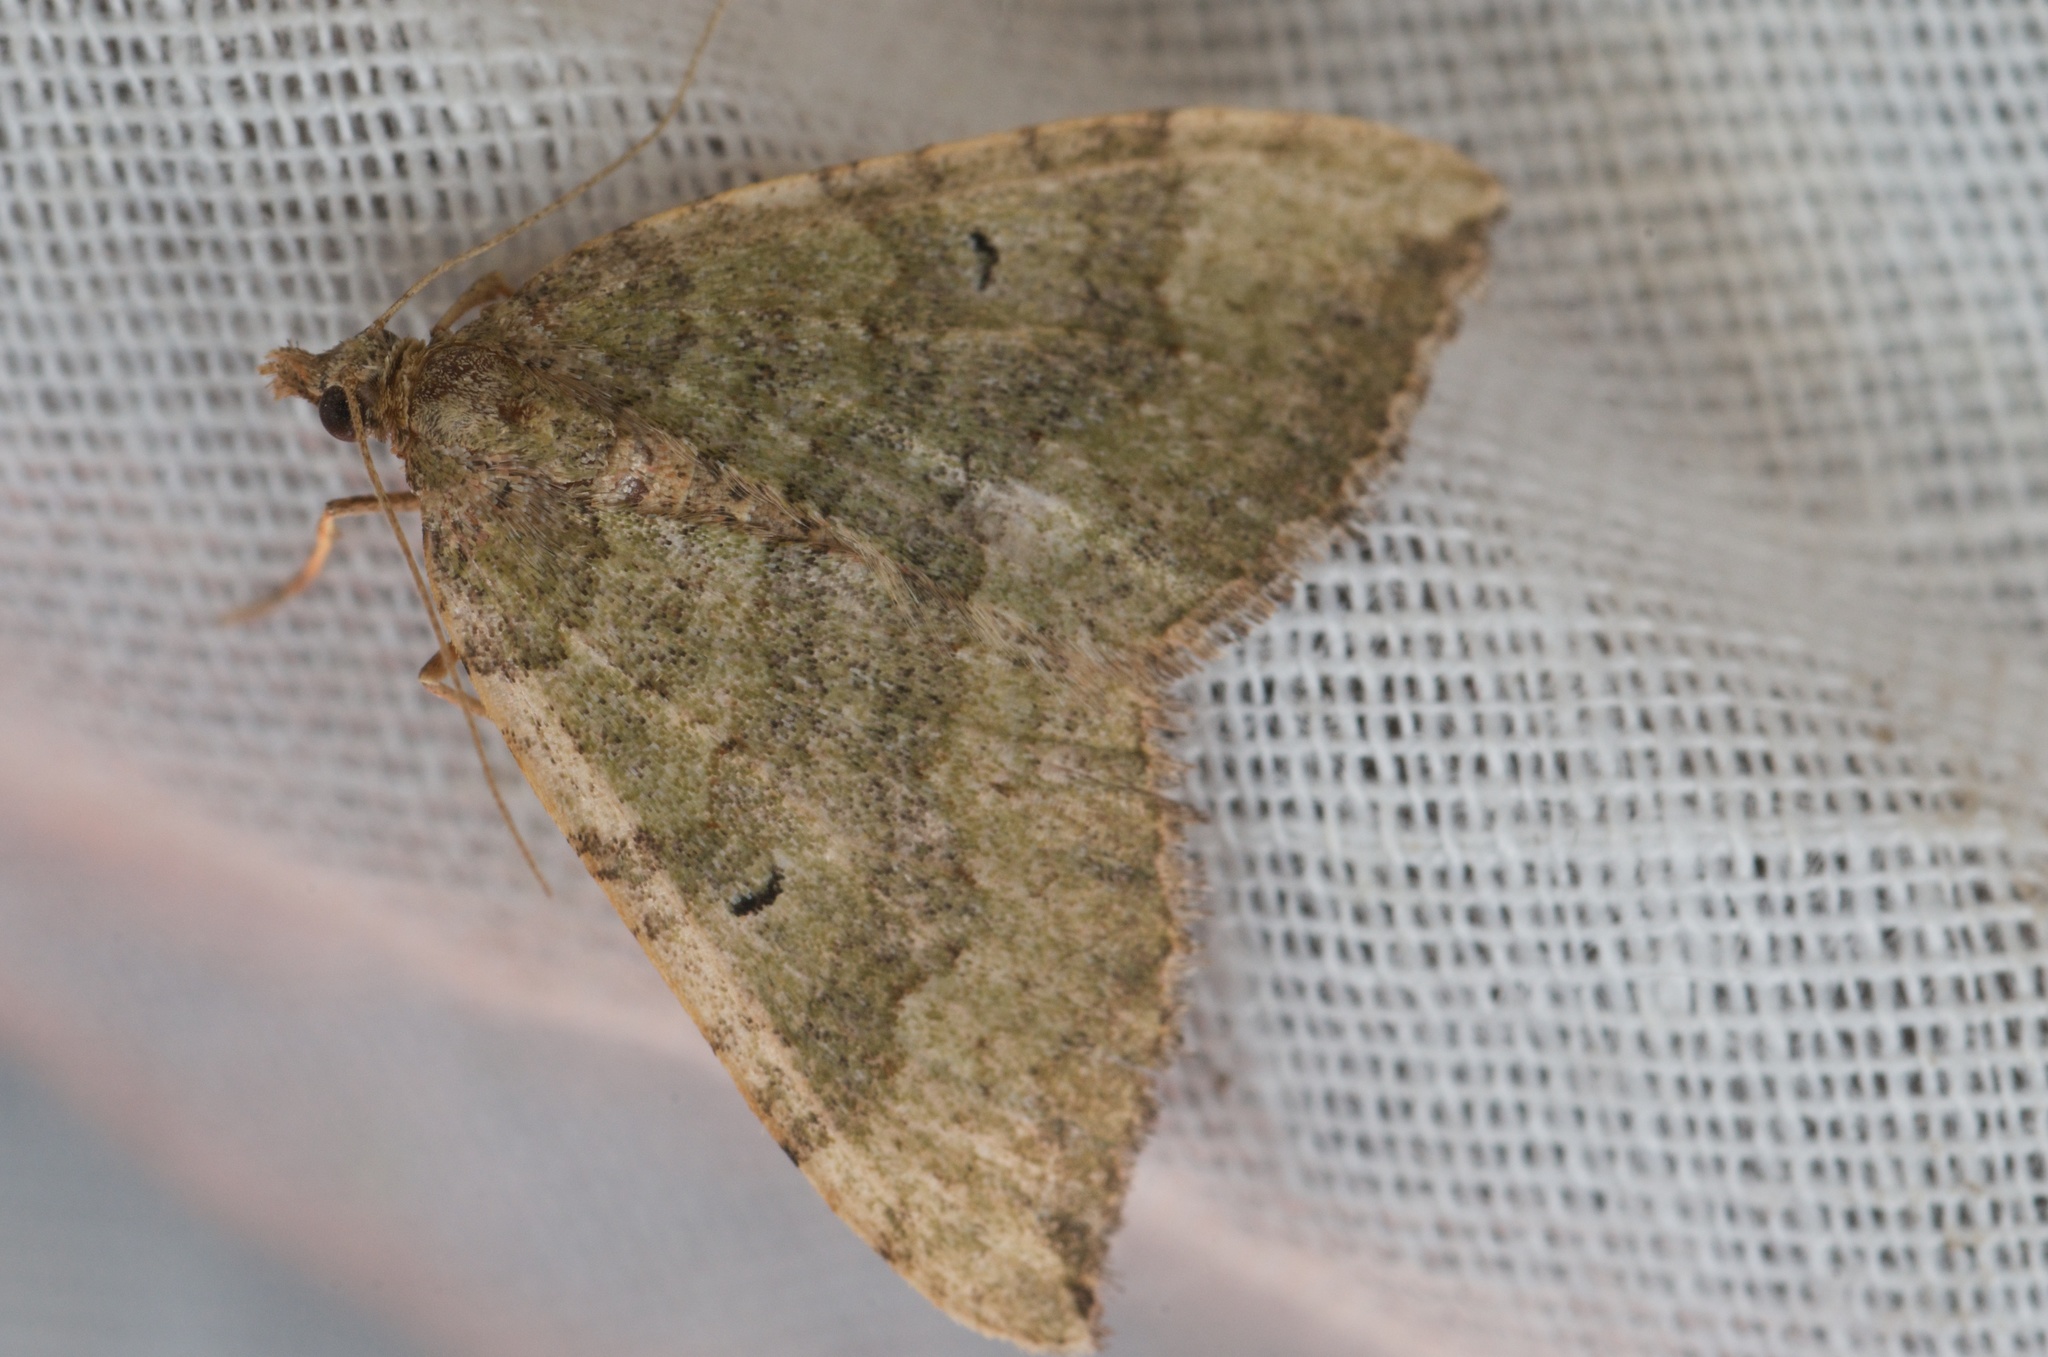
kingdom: Animalia
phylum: Arthropoda
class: Insecta
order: Lepidoptera
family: Geometridae
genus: Epyaxa
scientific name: Epyaxa rosearia
